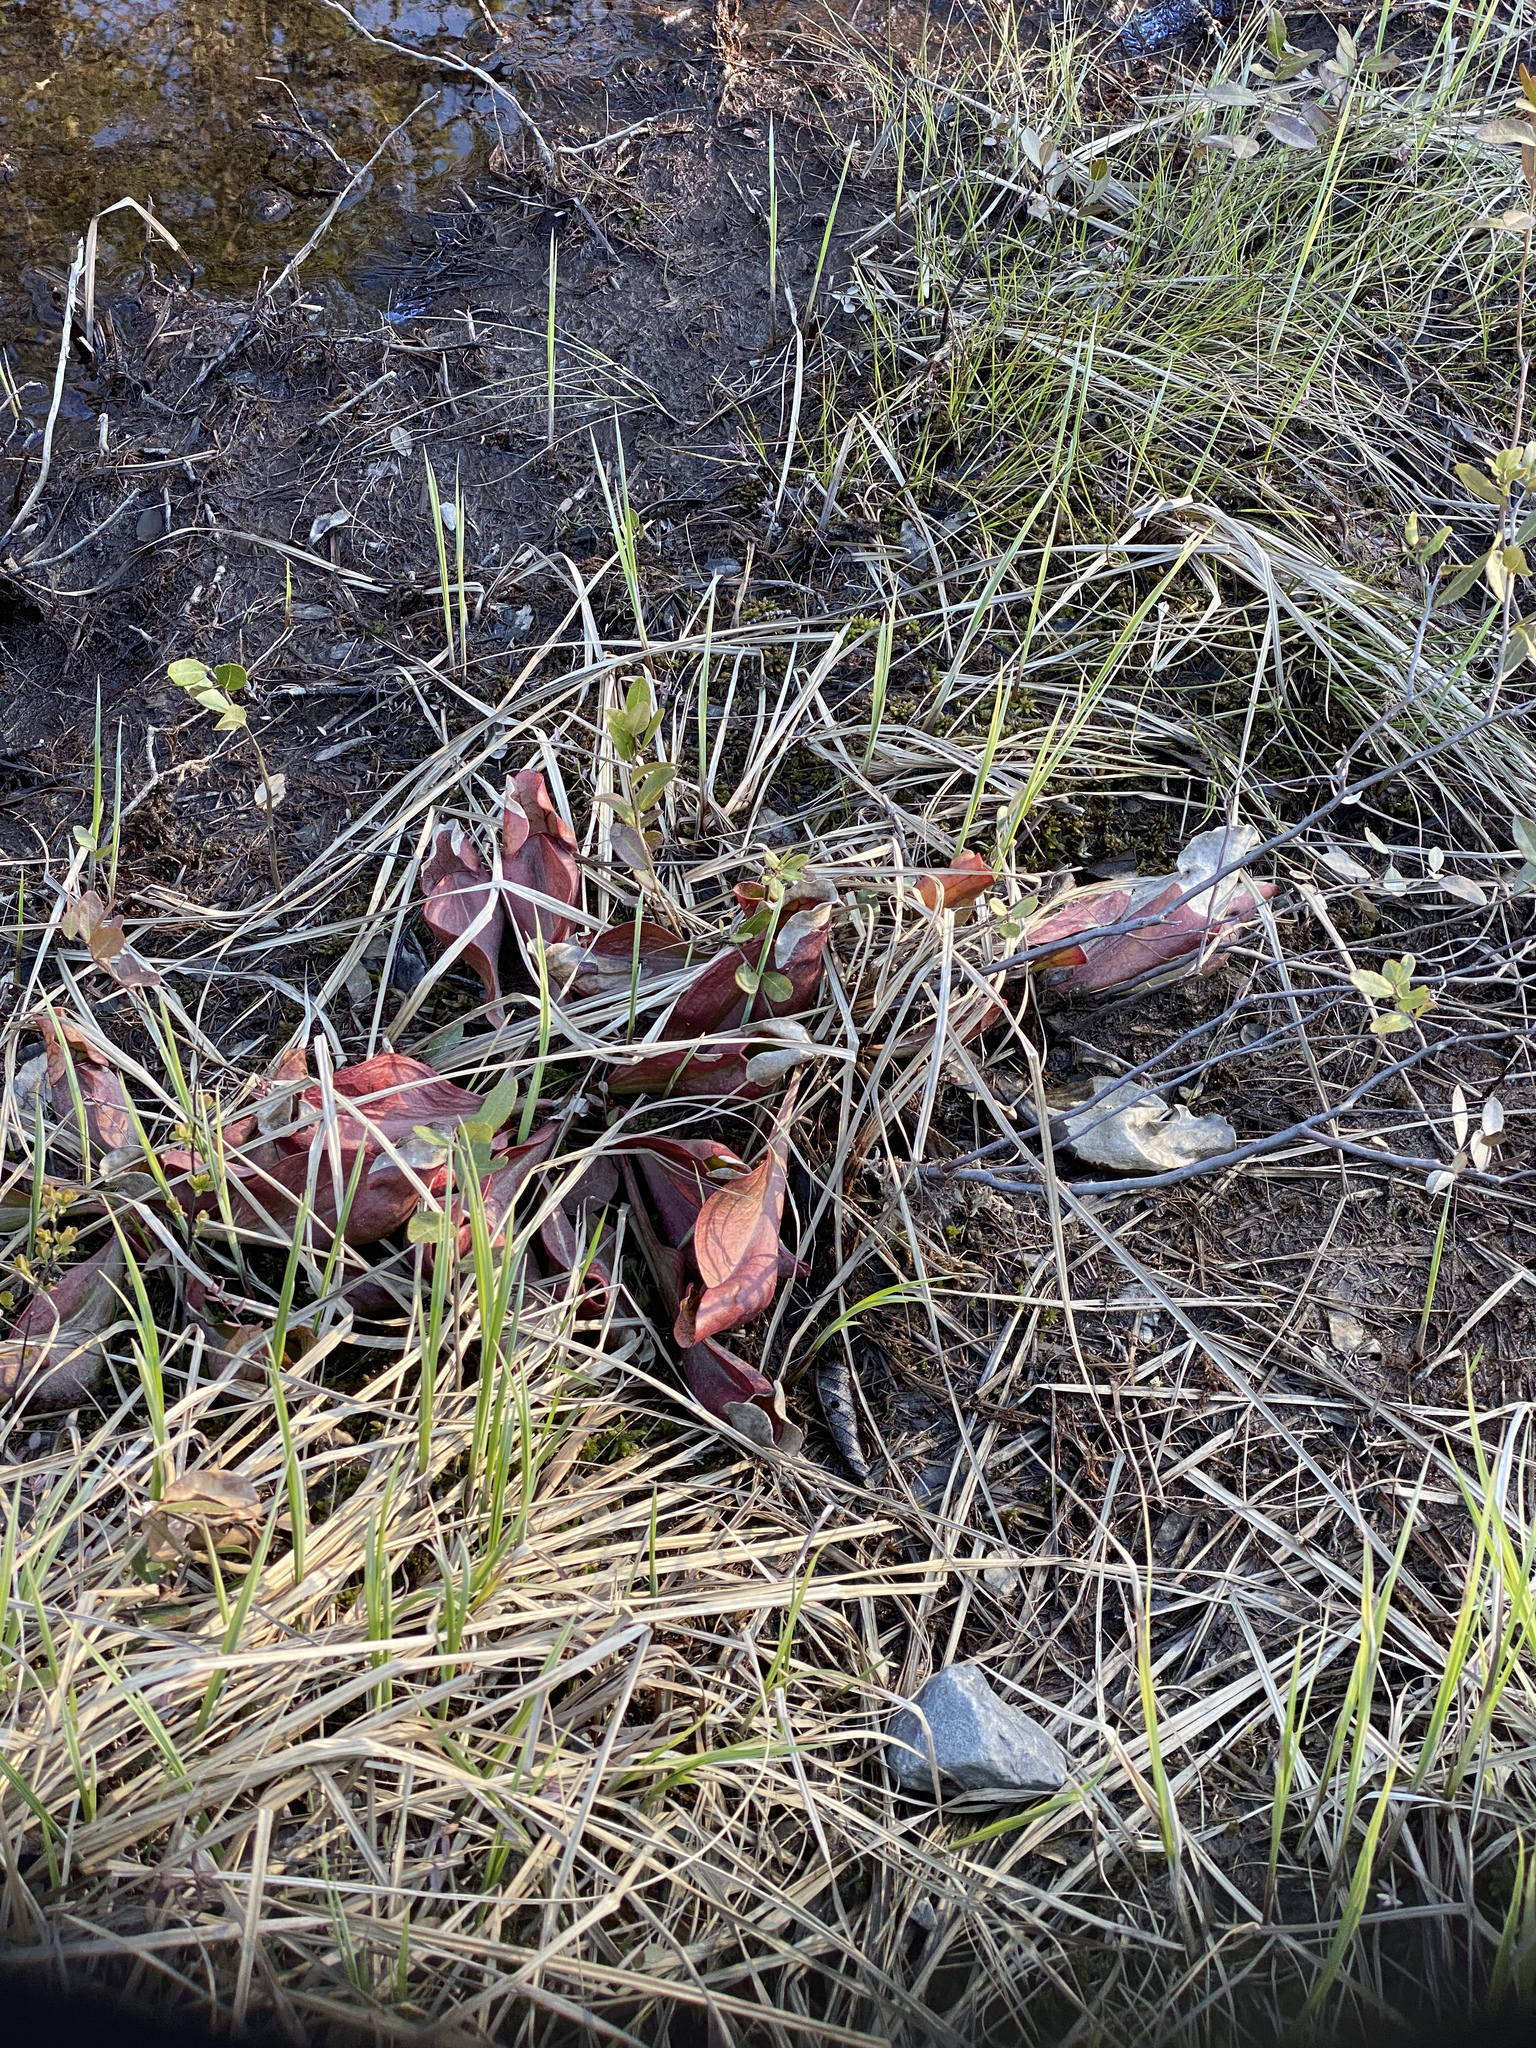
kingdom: Plantae
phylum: Tracheophyta
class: Magnoliopsida
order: Ericales
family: Sarraceniaceae
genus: Sarracenia
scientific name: Sarracenia purpurea
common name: Pitcherplant
